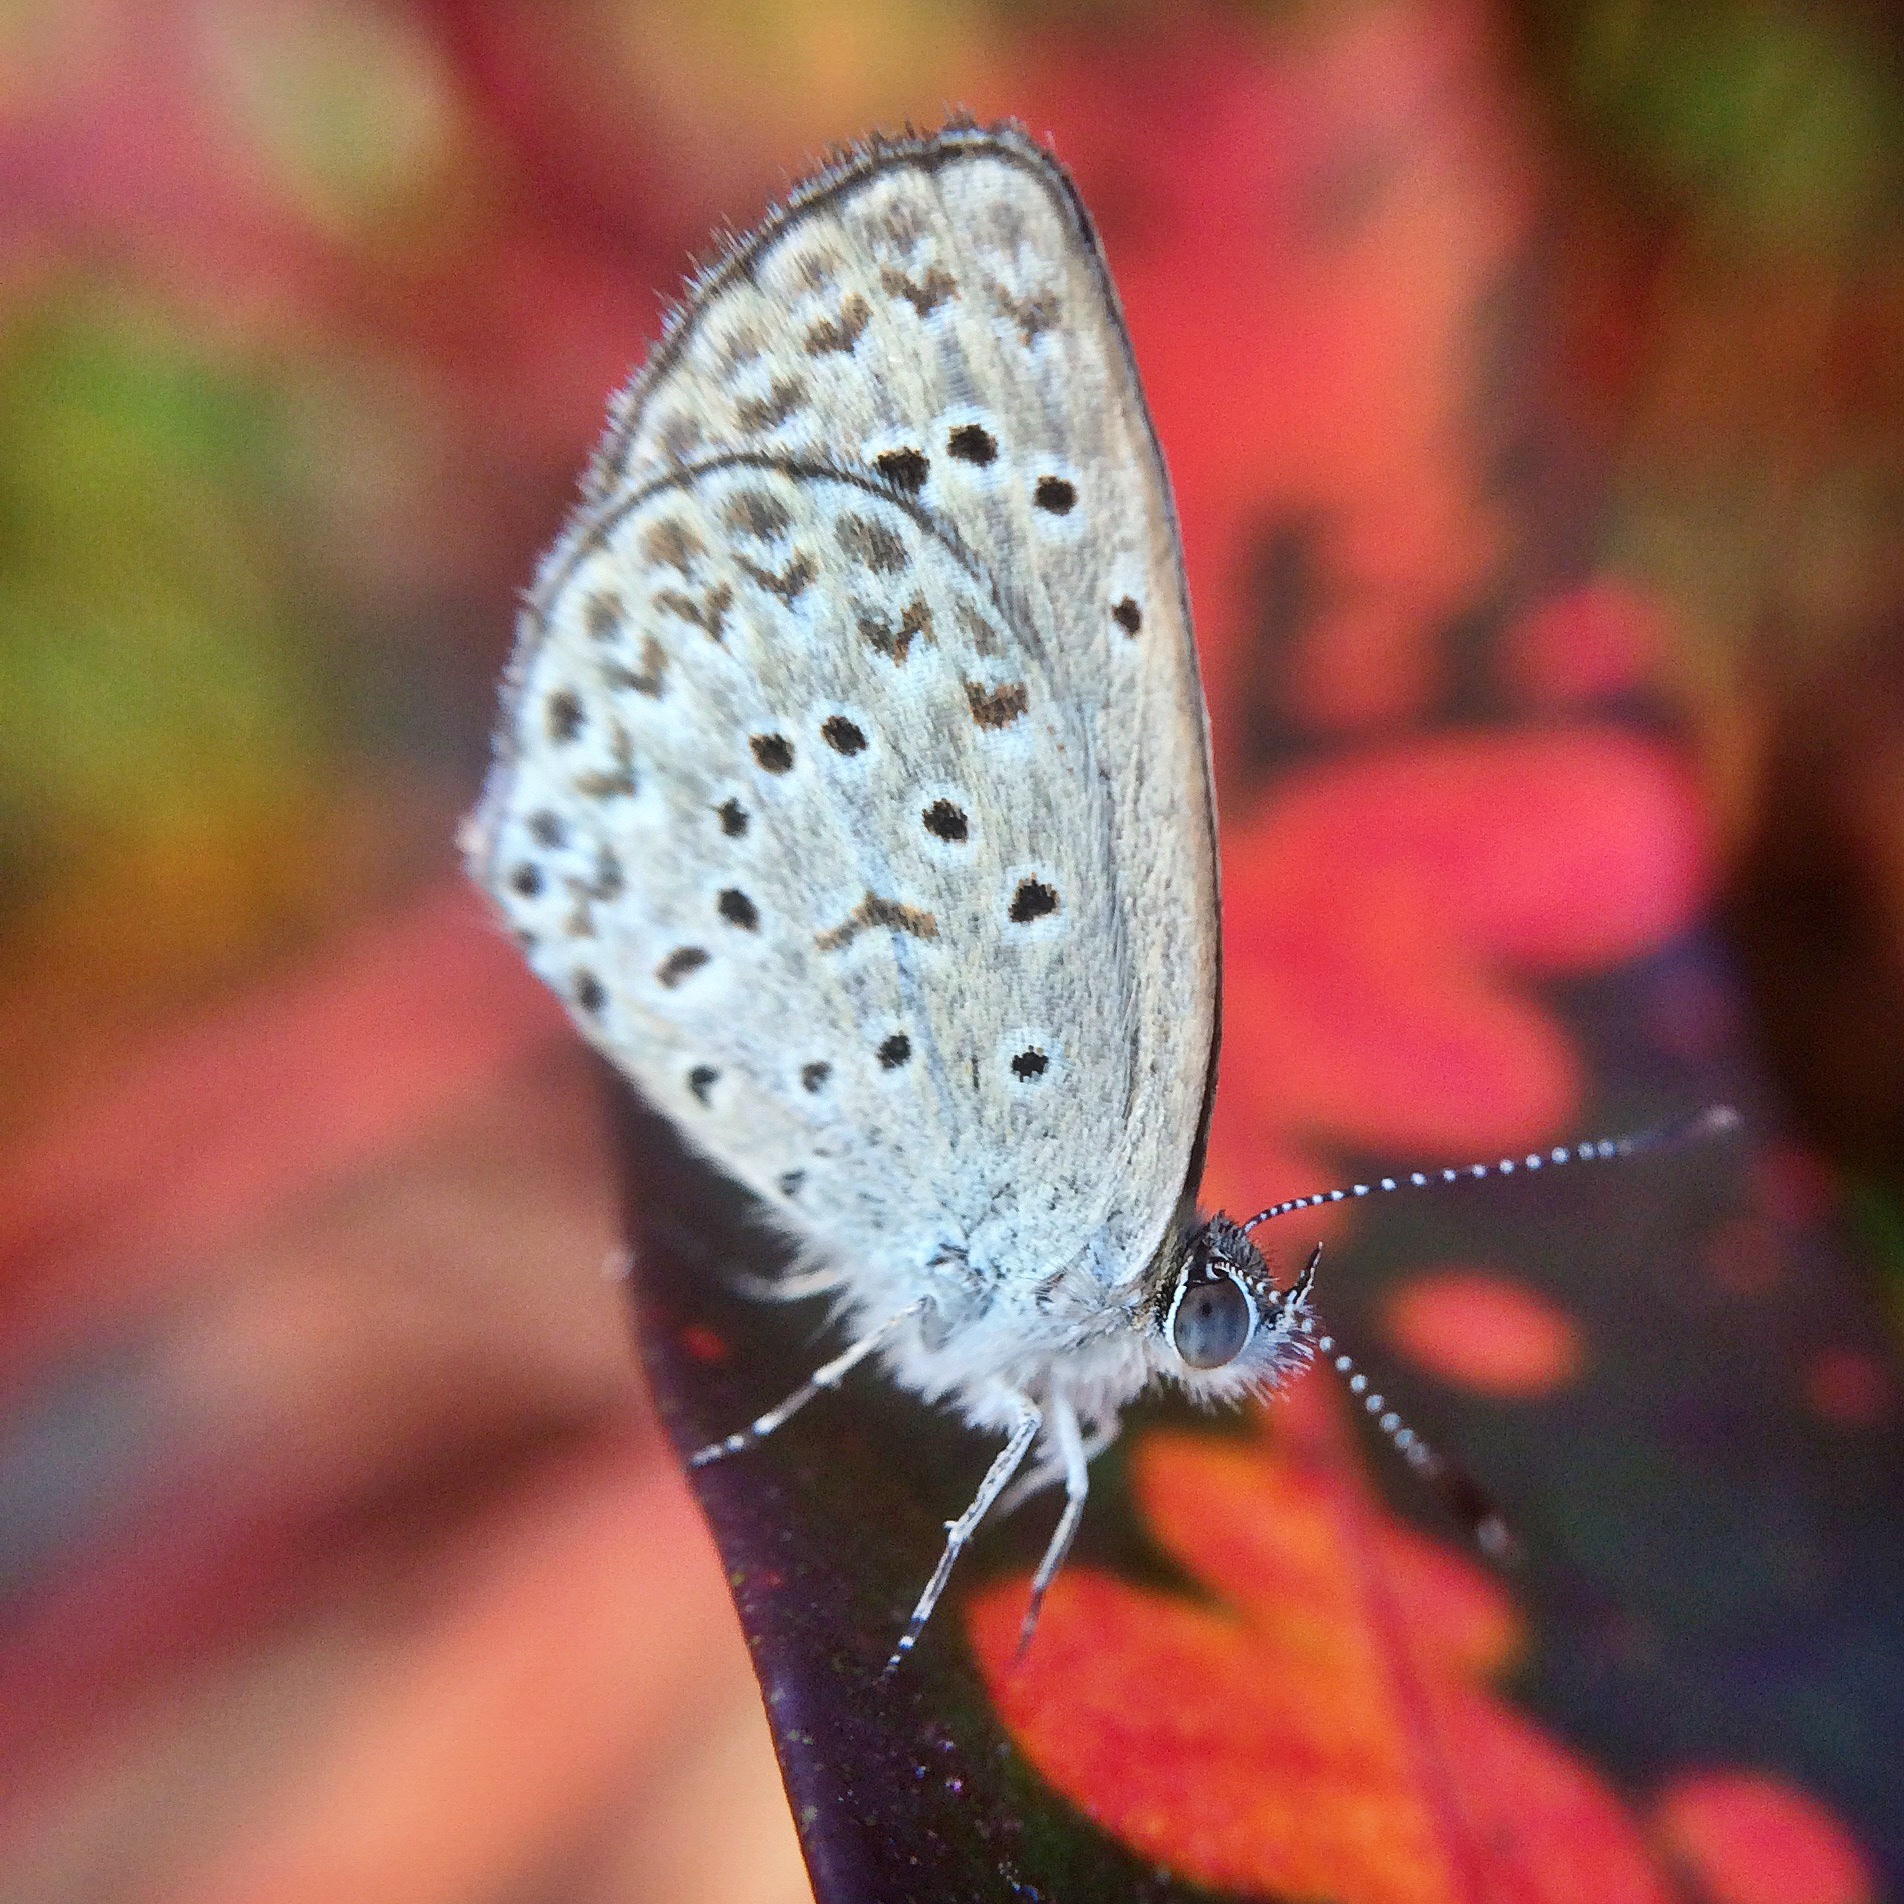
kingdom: Animalia
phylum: Arthropoda
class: Insecta
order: Lepidoptera
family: Lycaenidae
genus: Zizeeria
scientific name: Zizeeria knysna
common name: African grass blue
